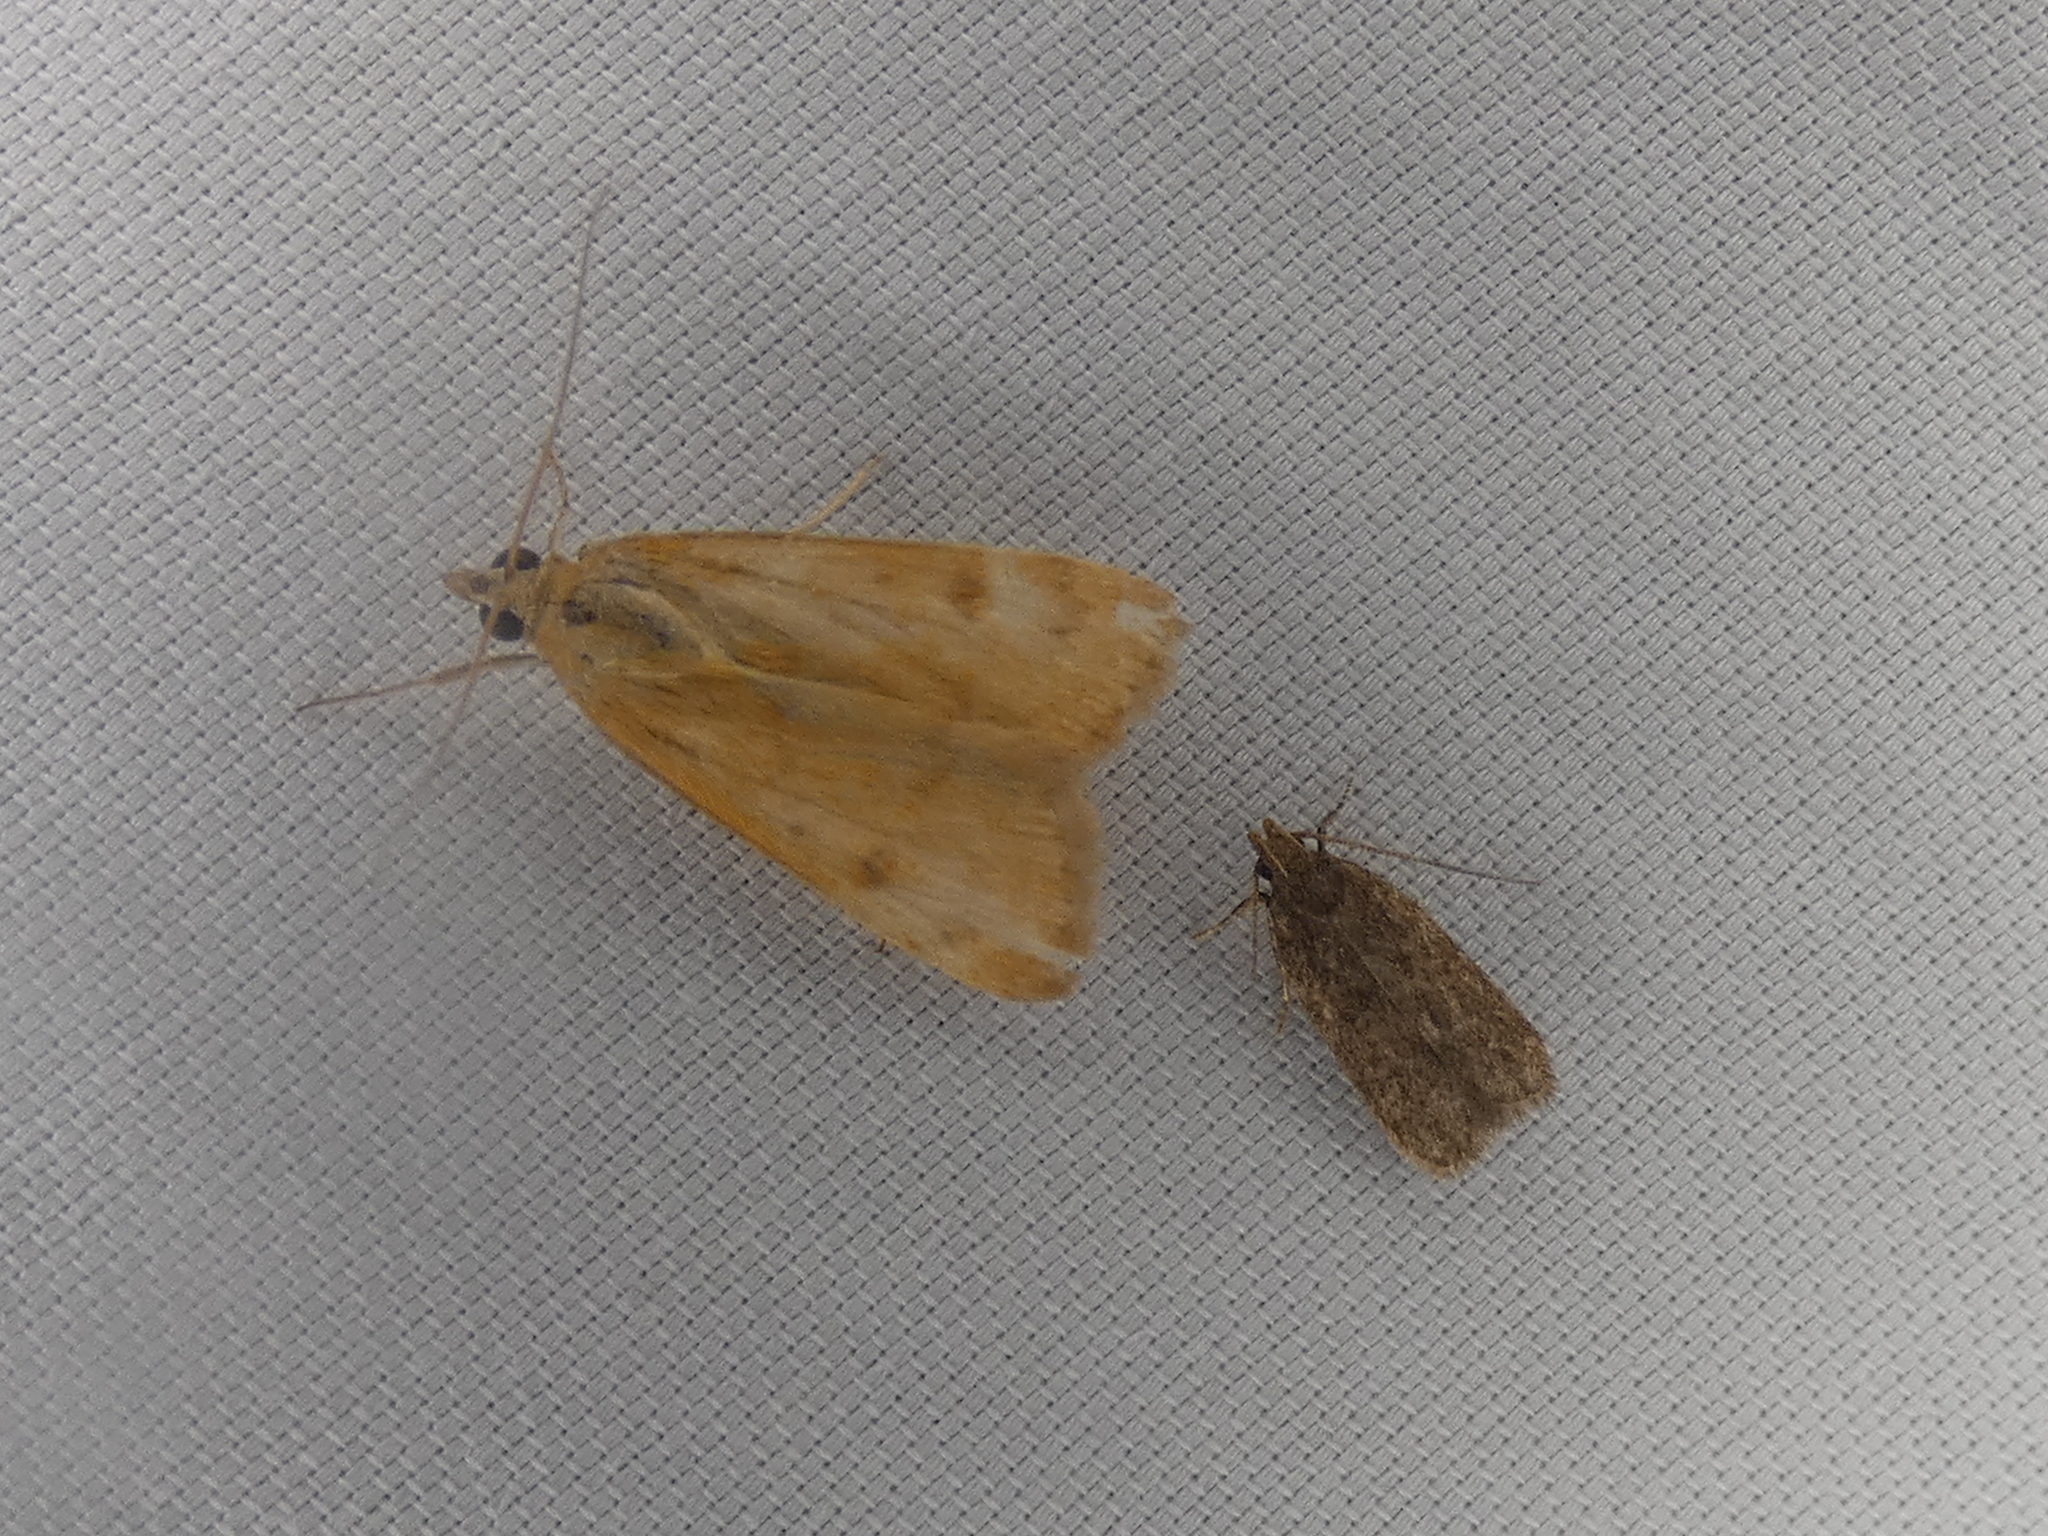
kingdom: Animalia
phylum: Arthropoda
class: Insecta
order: Lepidoptera
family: Crambidae
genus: Achyra
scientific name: Achyra rantalis
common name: Garden webworm
